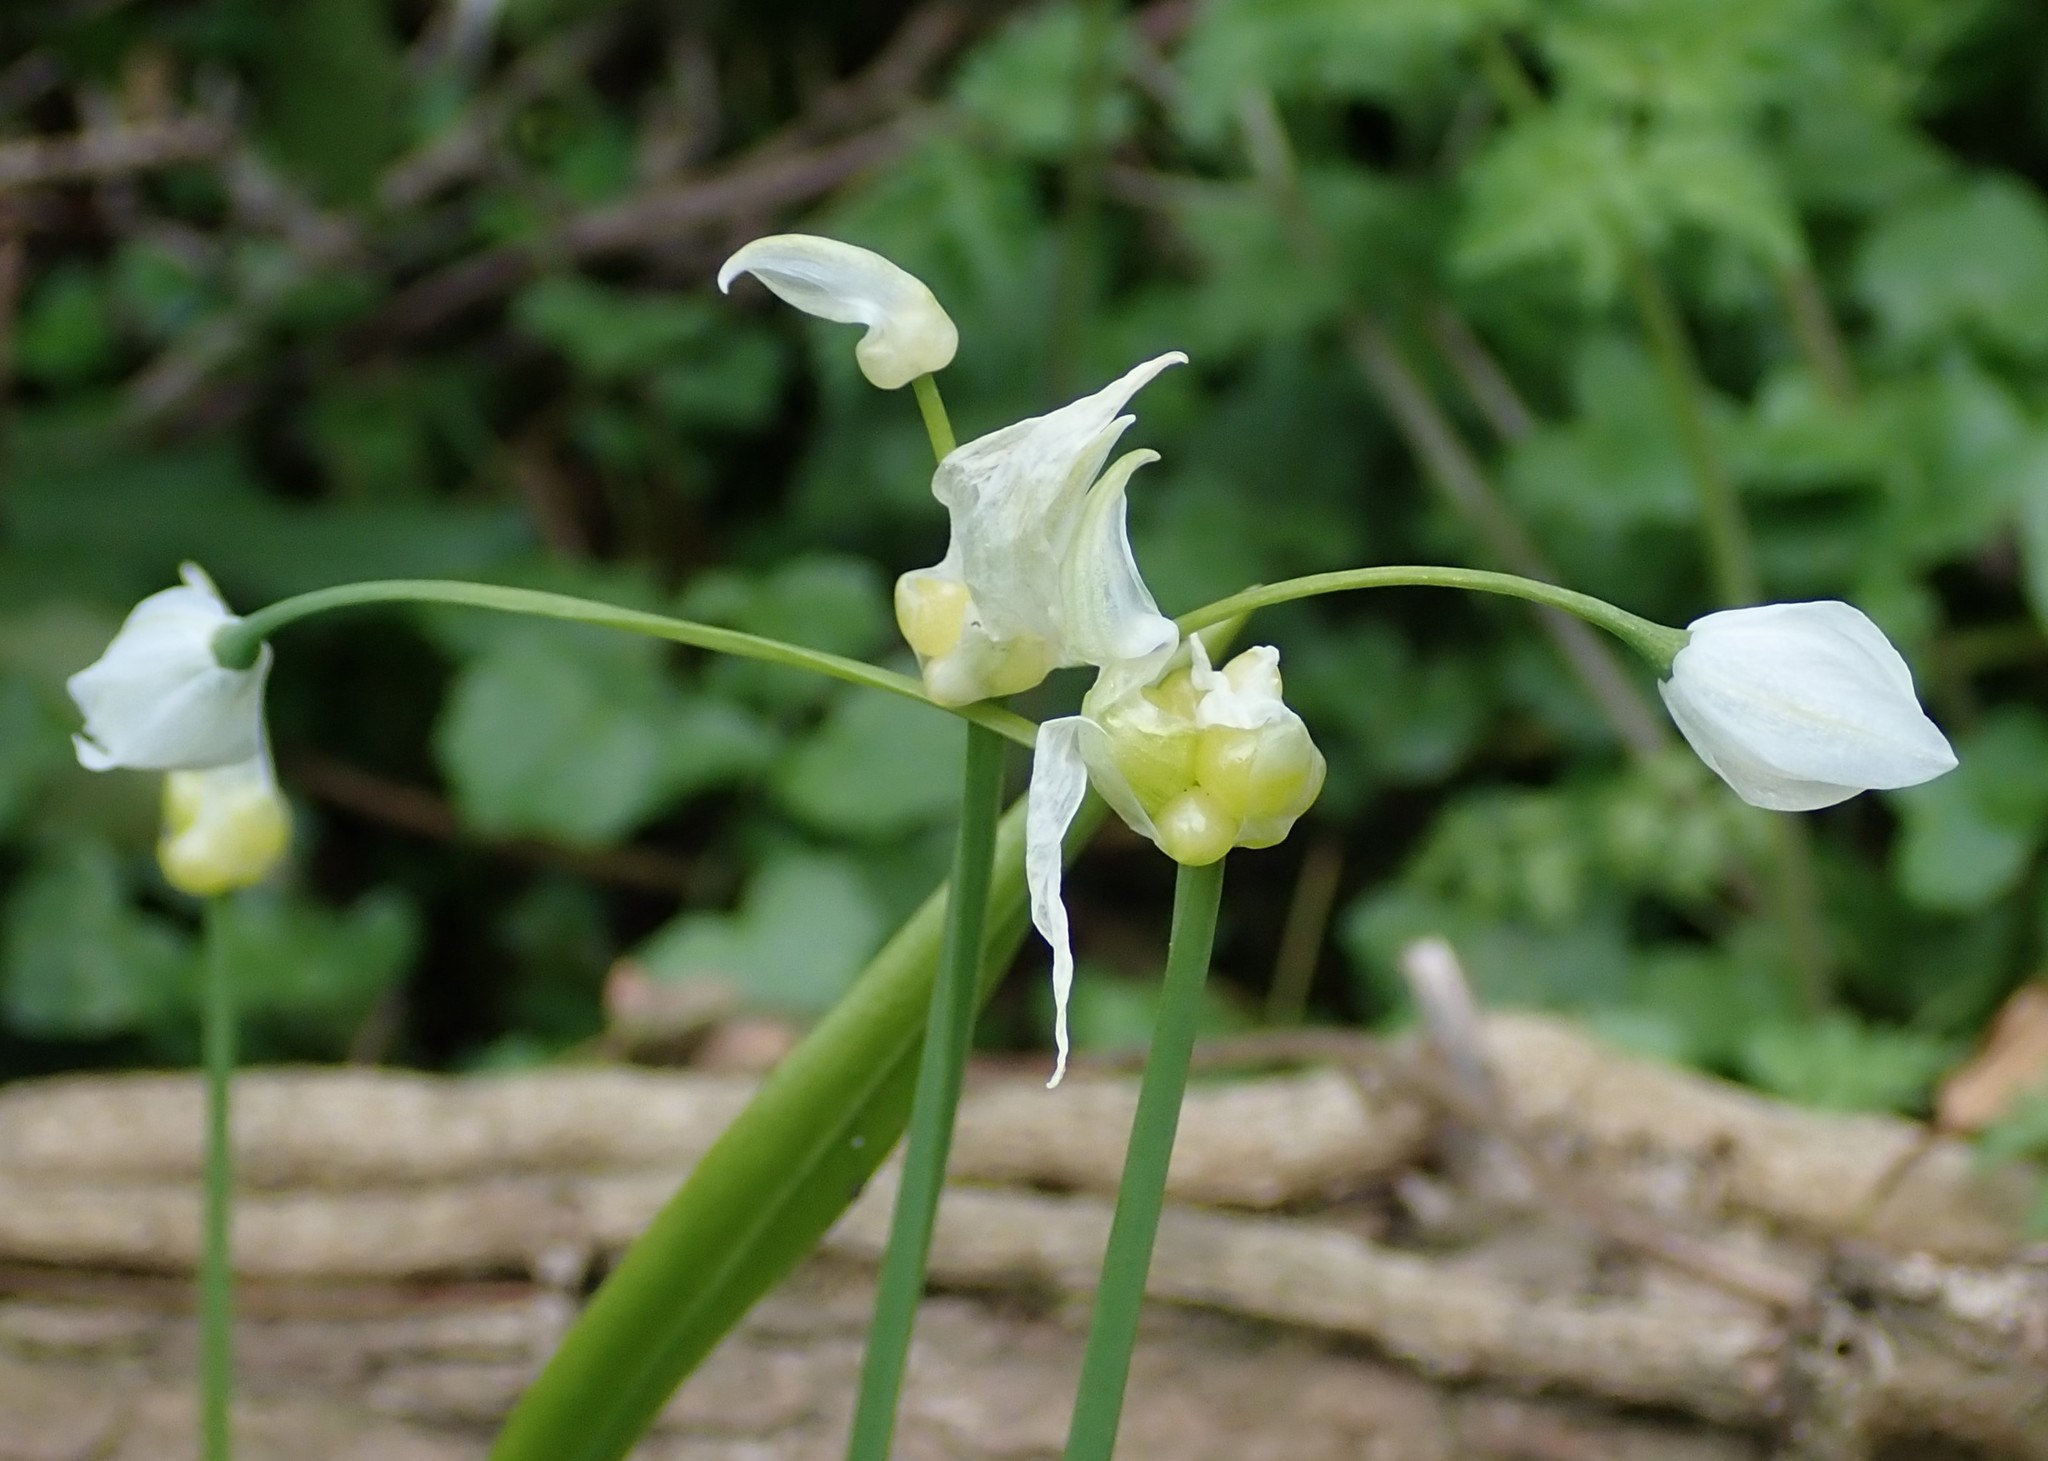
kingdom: Plantae
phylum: Tracheophyta
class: Liliopsida
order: Asparagales
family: Amaryllidaceae
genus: Allium
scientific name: Allium paradoxum
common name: Few-flowered garlic
